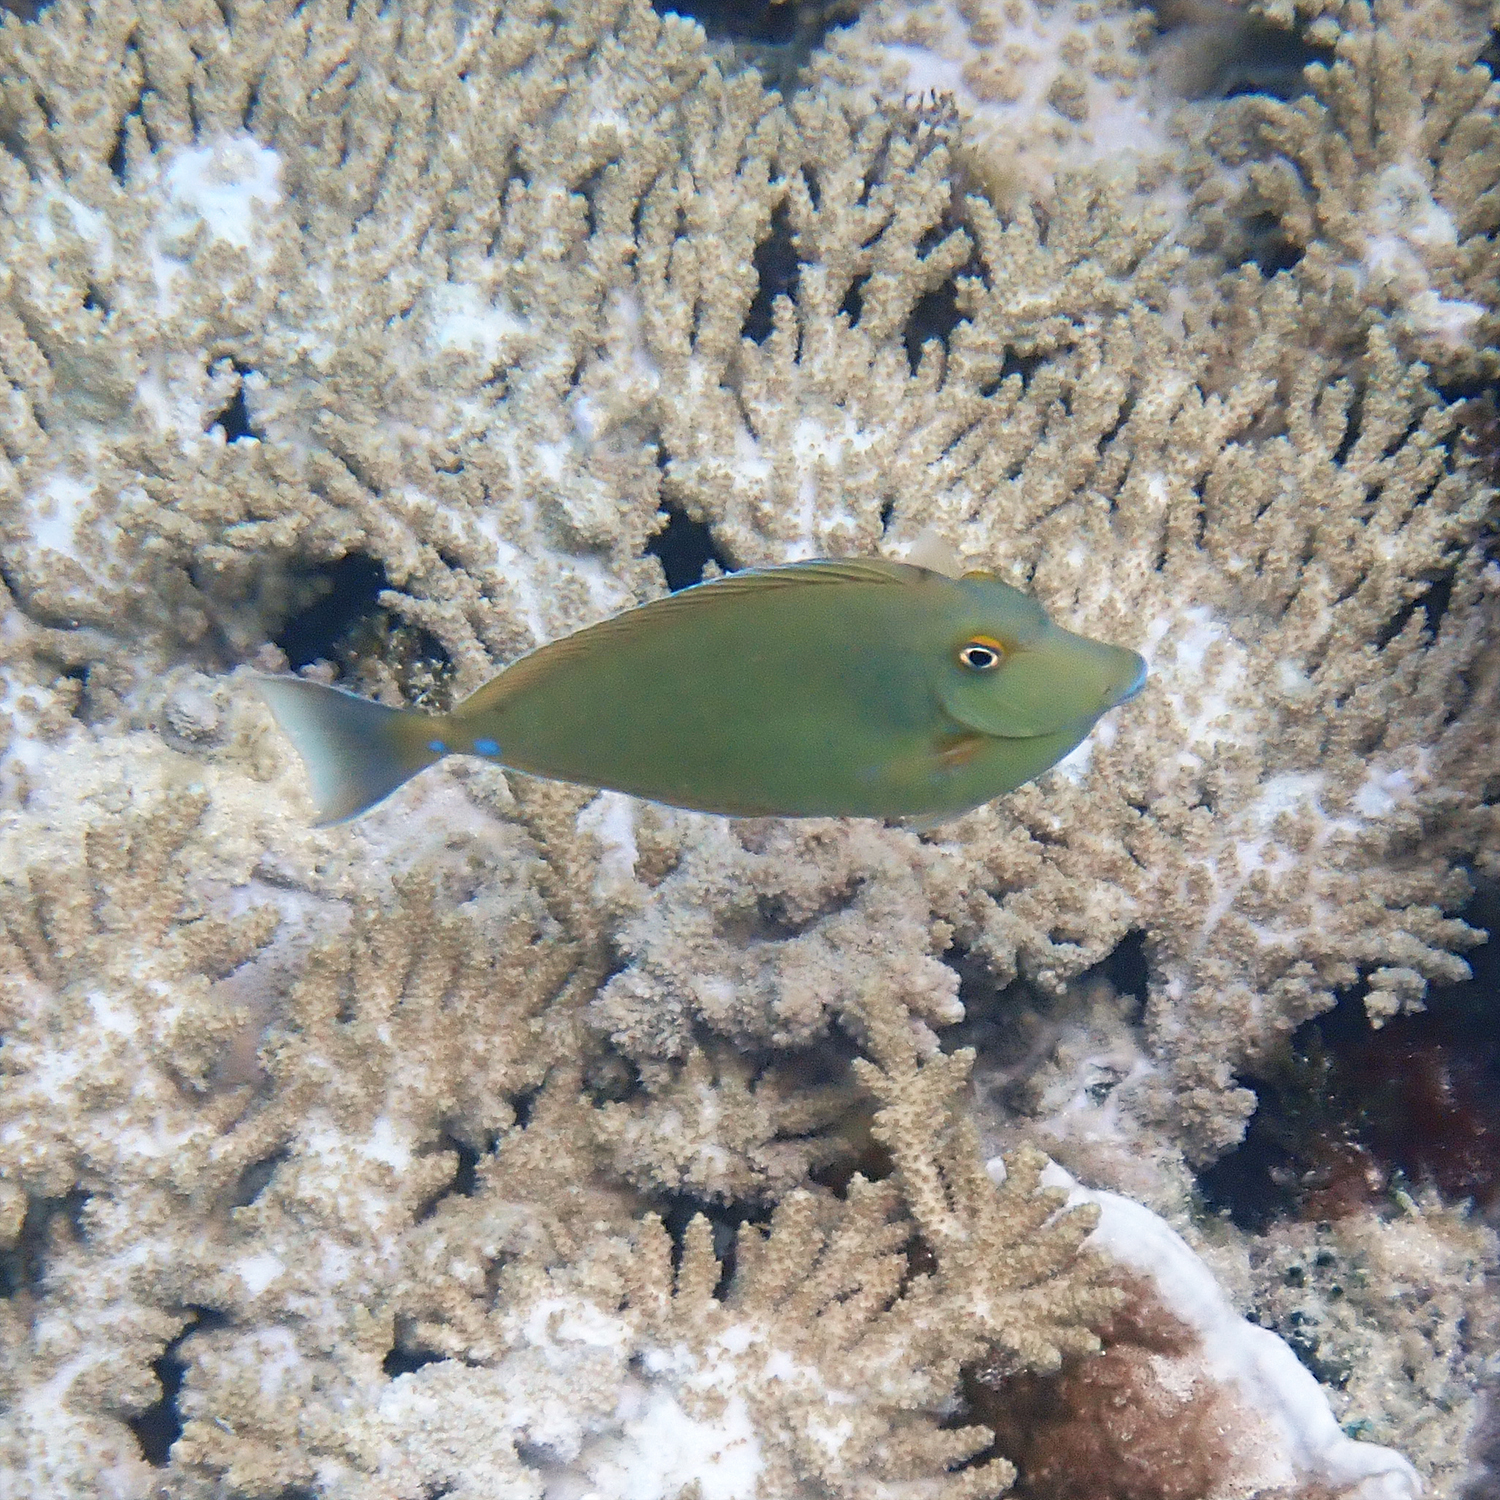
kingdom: Animalia
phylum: Chordata
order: Perciformes
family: Acanthuridae
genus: Naso
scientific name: Naso unicornis
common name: Bluespine unicornfish
